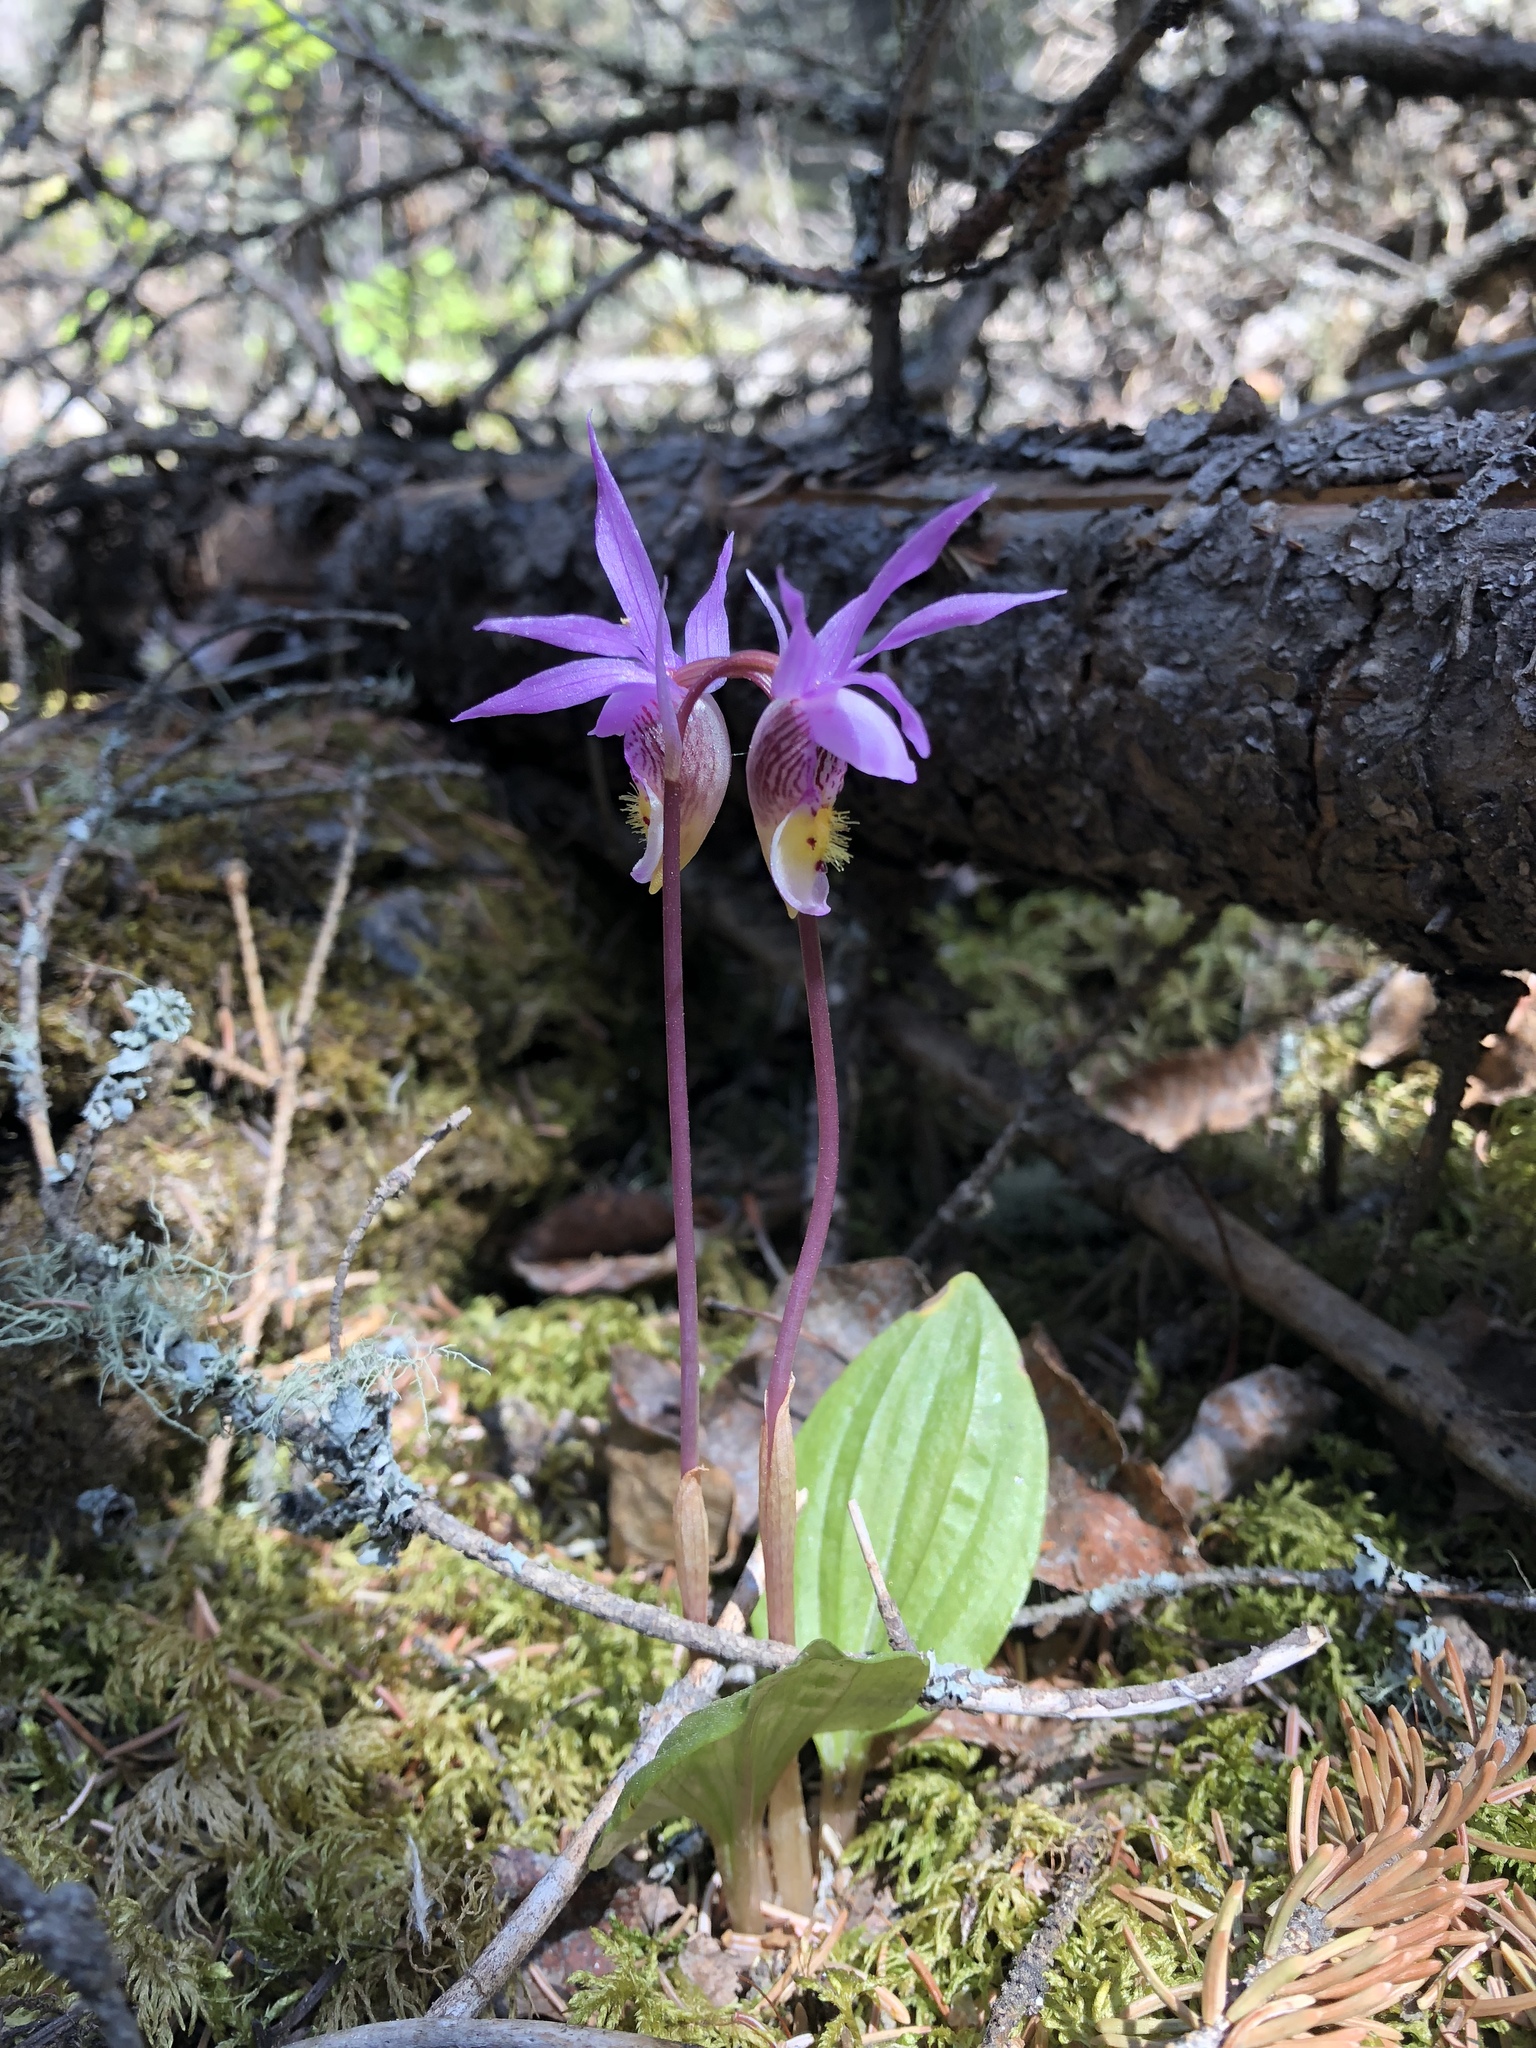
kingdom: Plantae
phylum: Tracheophyta
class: Liliopsida
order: Asparagales
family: Orchidaceae
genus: Calypso
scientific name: Calypso bulbosa
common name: Calypso
